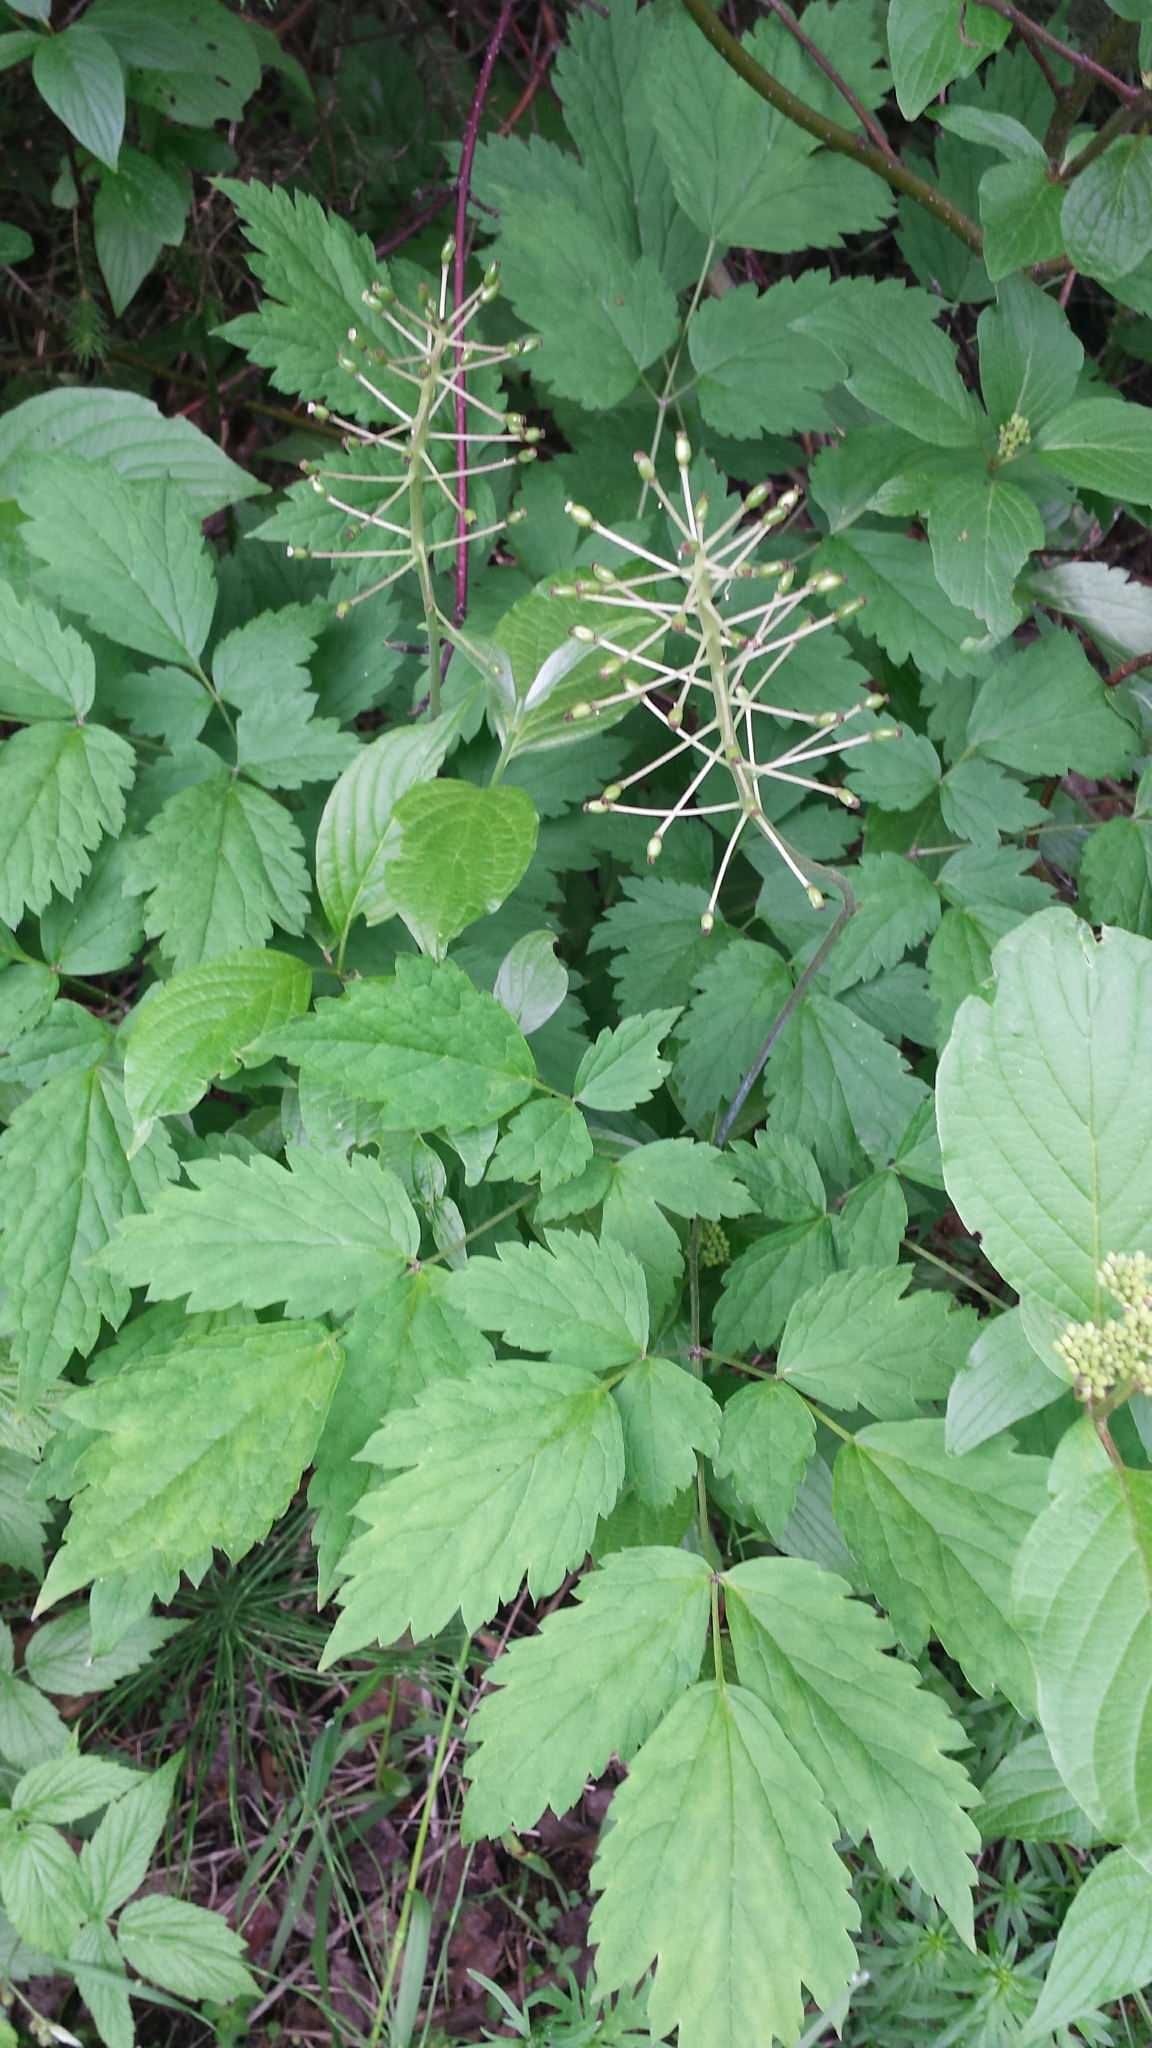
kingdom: Plantae
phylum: Tracheophyta
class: Magnoliopsida
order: Ranunculales
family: Ranunculaceae
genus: Actaea
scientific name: Actaea rubra
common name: Red baneberry
